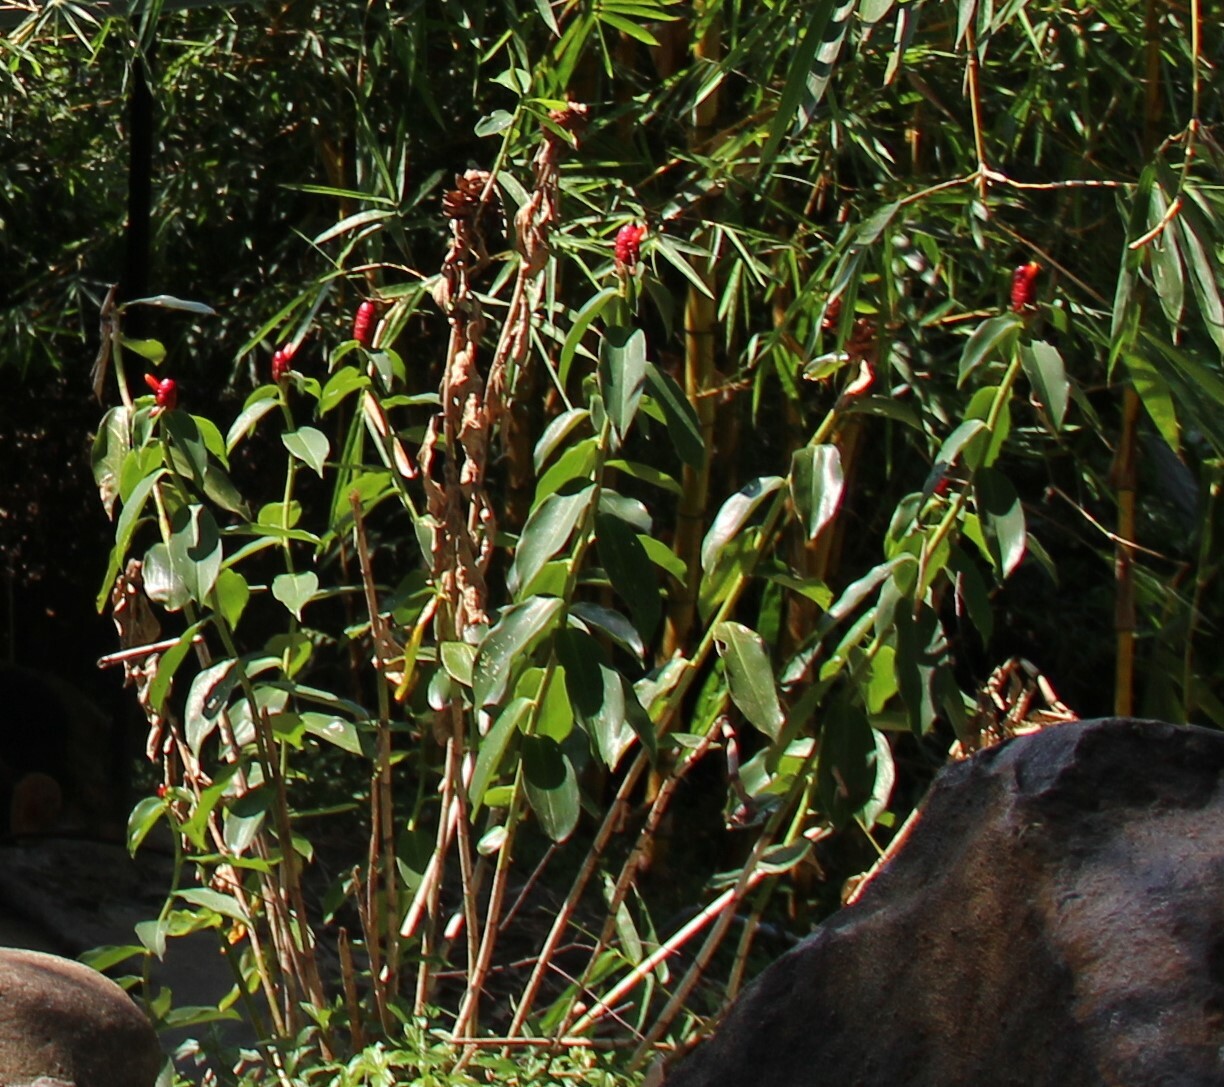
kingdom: Plantae
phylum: Tracheophyta
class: Liliopsida
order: Zingiberales
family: Costaceae
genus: Costus
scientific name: Costus woodsonii
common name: Scarlet spiral-ginger
